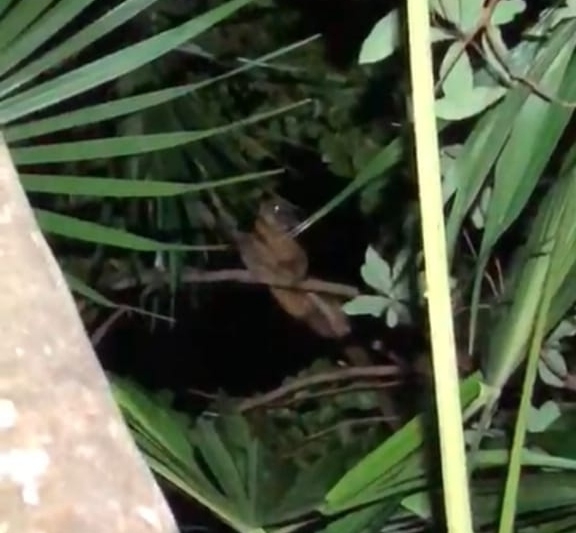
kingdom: Animalia
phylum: Chordata
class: Mammalia
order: Carnivora
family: Procyonidae
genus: Potos
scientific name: Potos flavus
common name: Kinkajou
